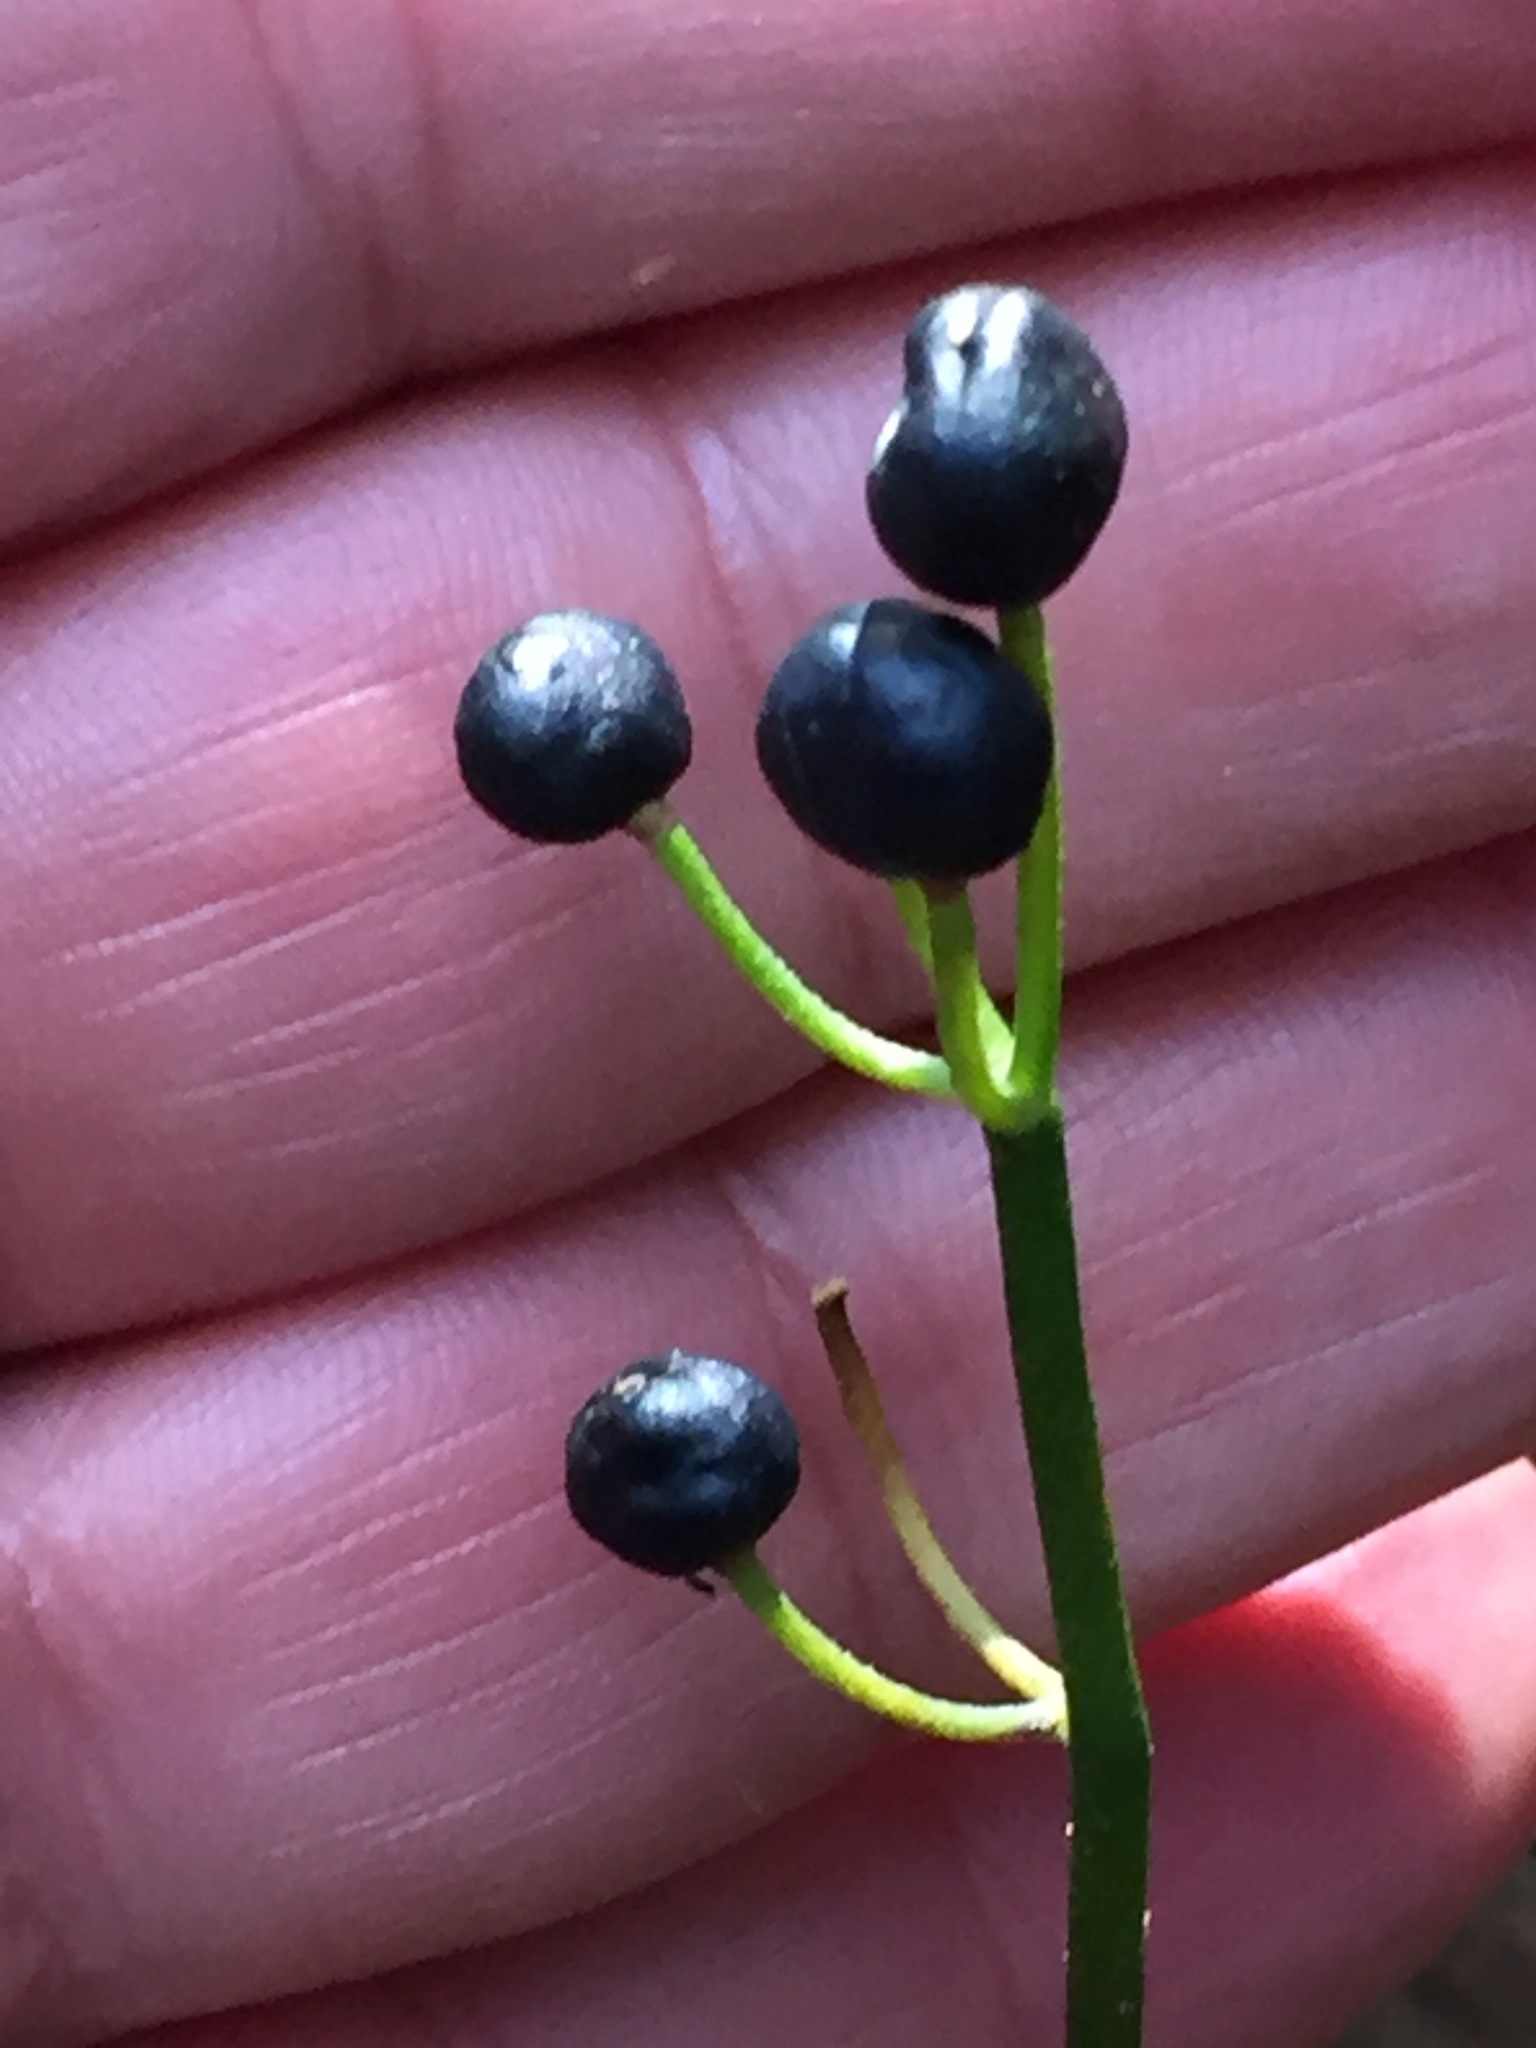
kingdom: Plantae
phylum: Tracheophyta
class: Liliopsida
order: Liliales
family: Liliaceae
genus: Clintonia
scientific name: Clintonia borealis
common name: Yellow clintonia
